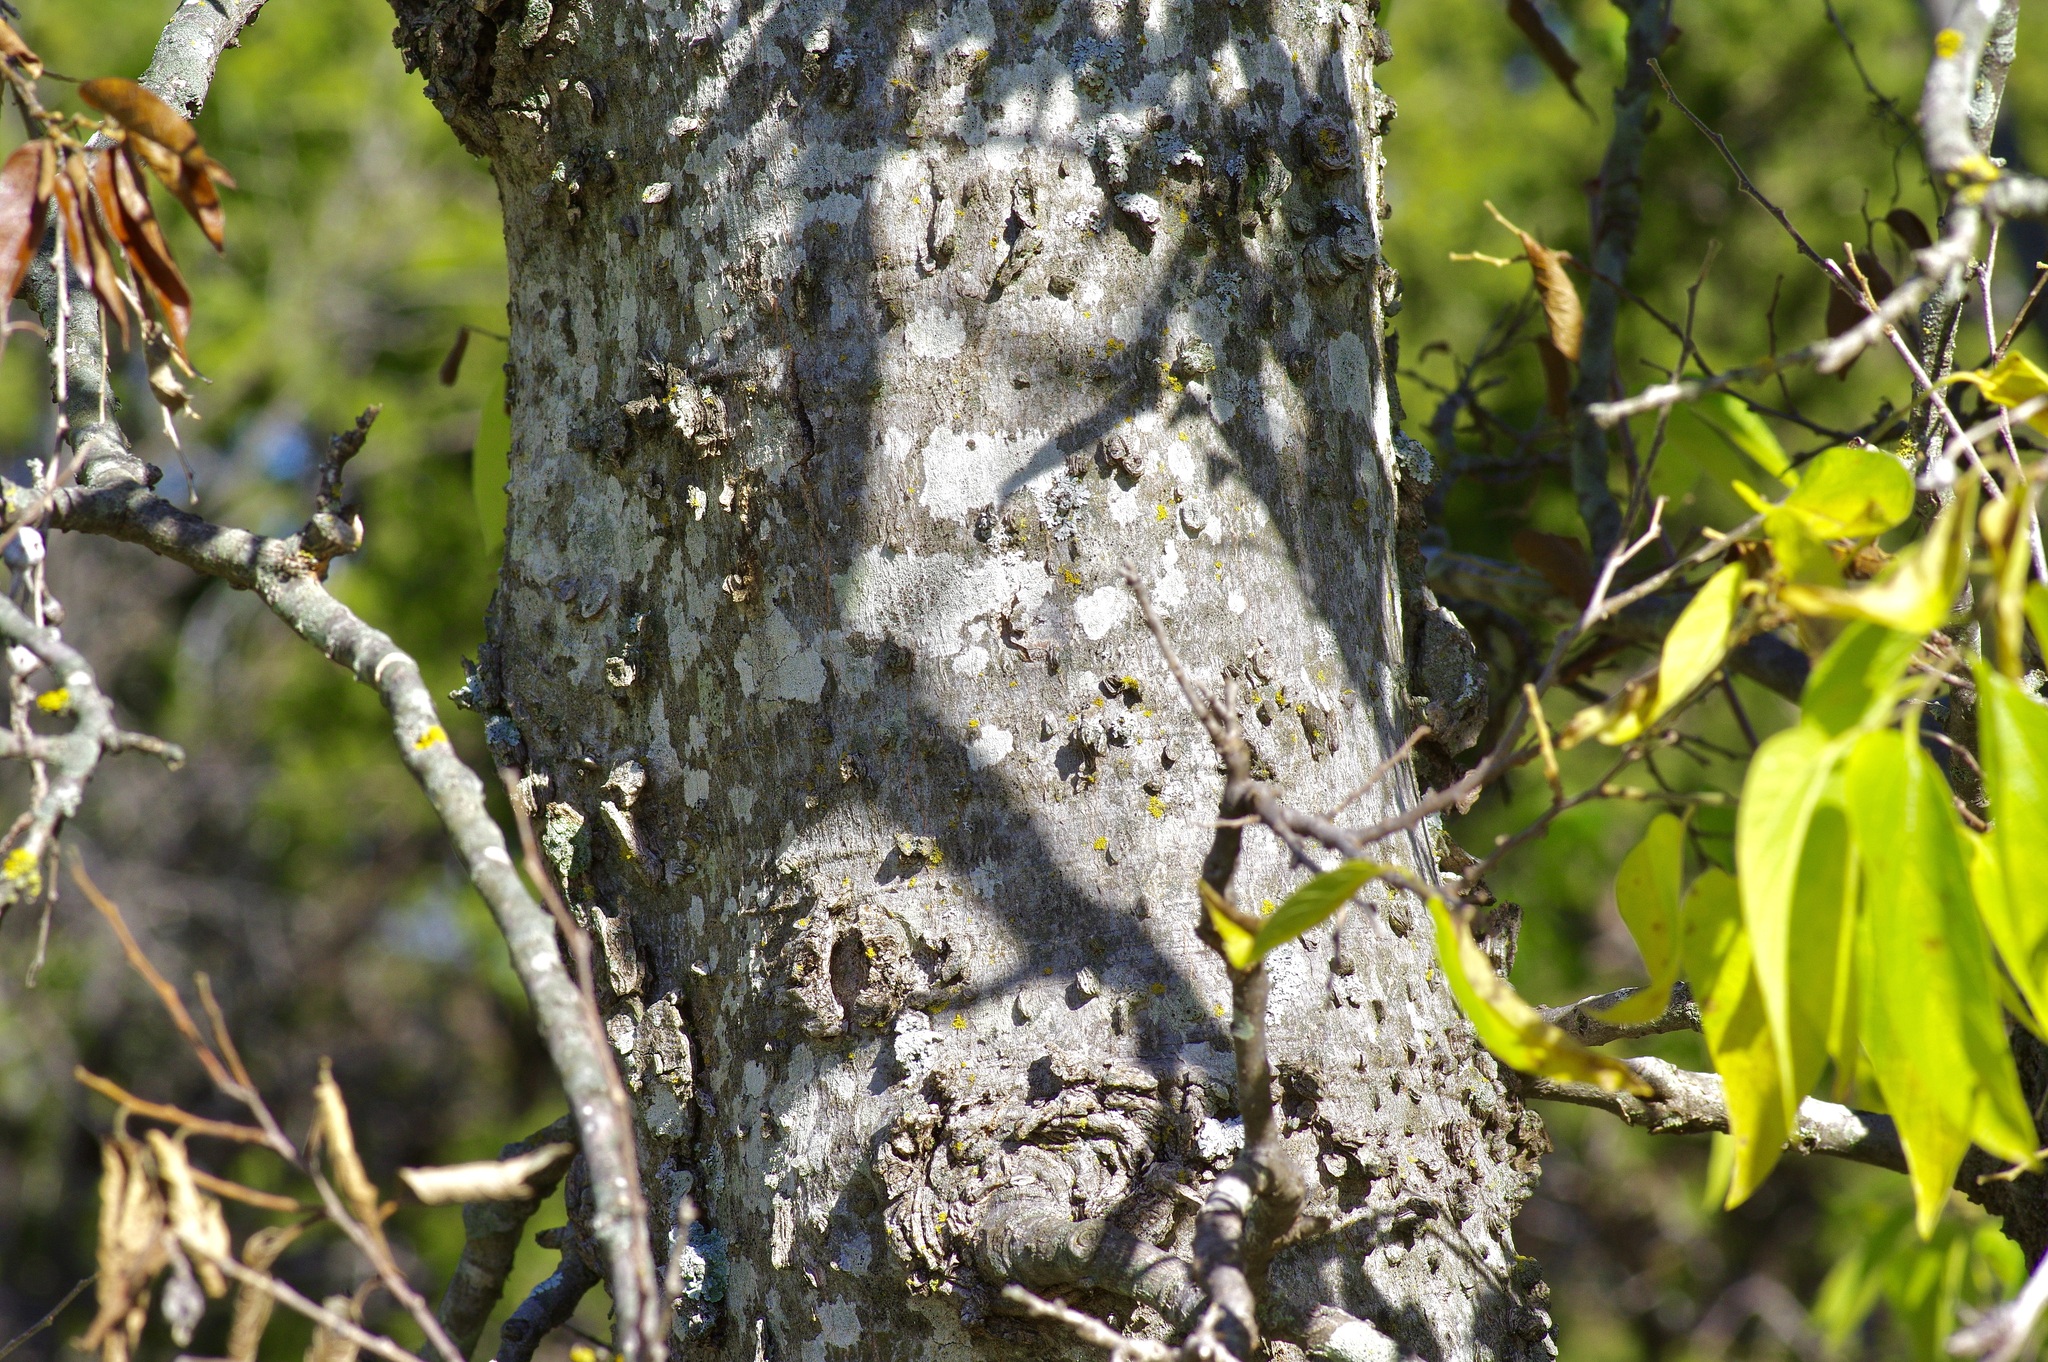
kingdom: Plantae
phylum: Tracheophyta
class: Magnoliopsida
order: Rosales
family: Cannabaceae
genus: Celtis
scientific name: Celtis laevigata
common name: Sugarberry
